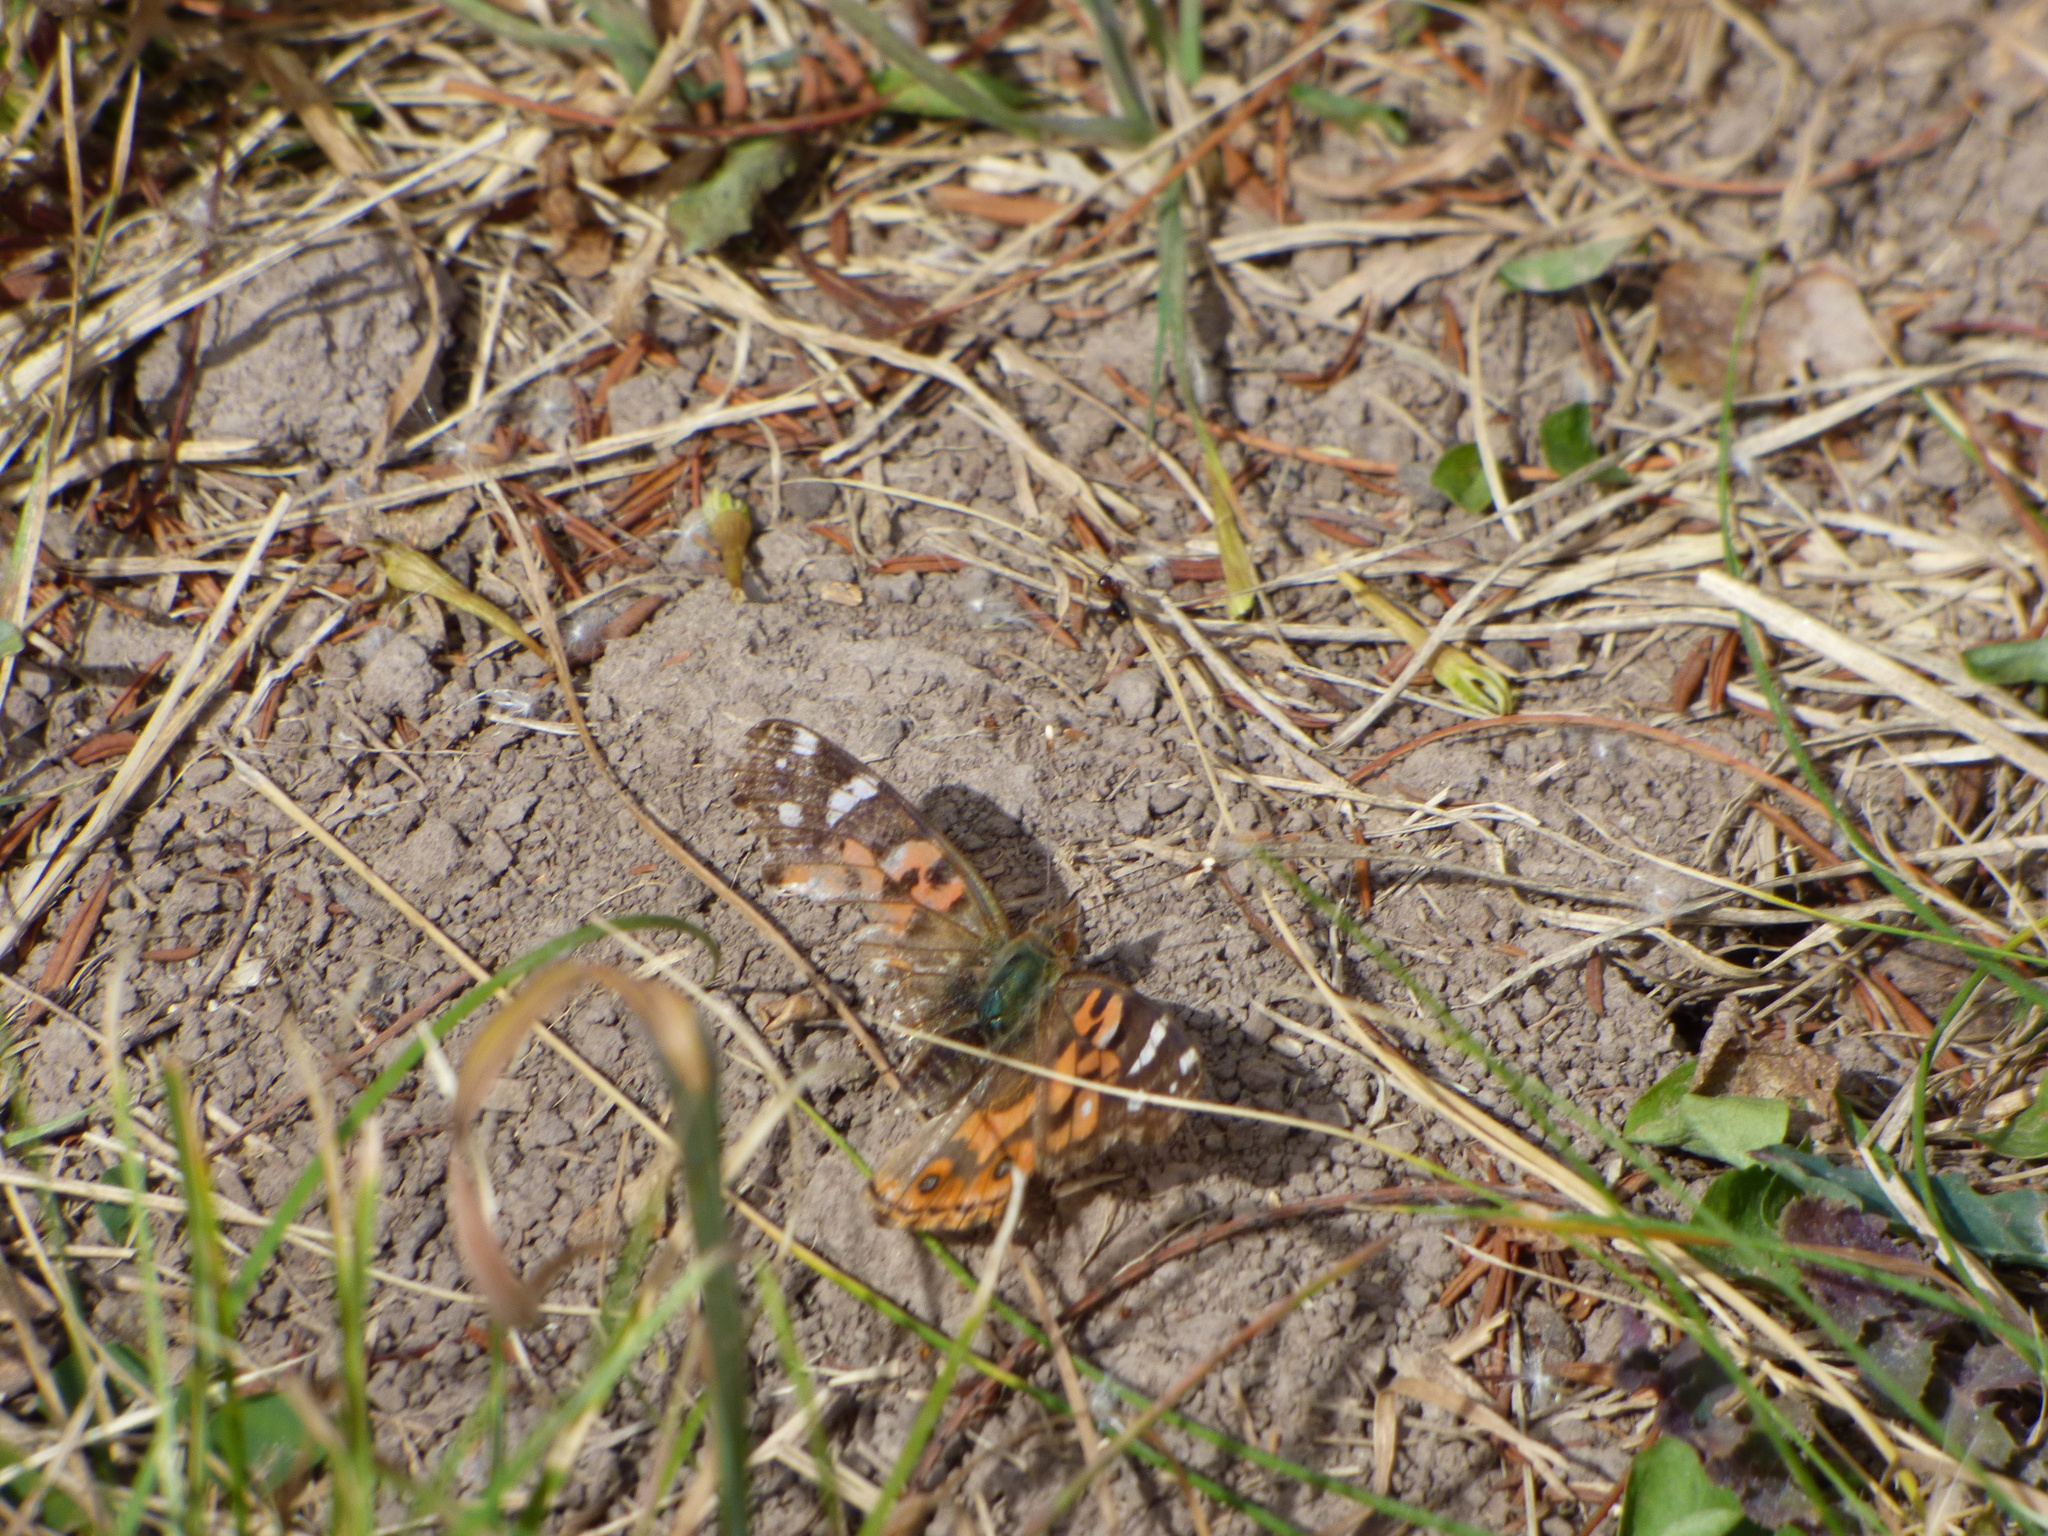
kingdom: Animalia
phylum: Arthropoda
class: Insecta
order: Lepidoptera
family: Nymphalidae
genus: Vanessa
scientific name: Vanessa braziliensis
